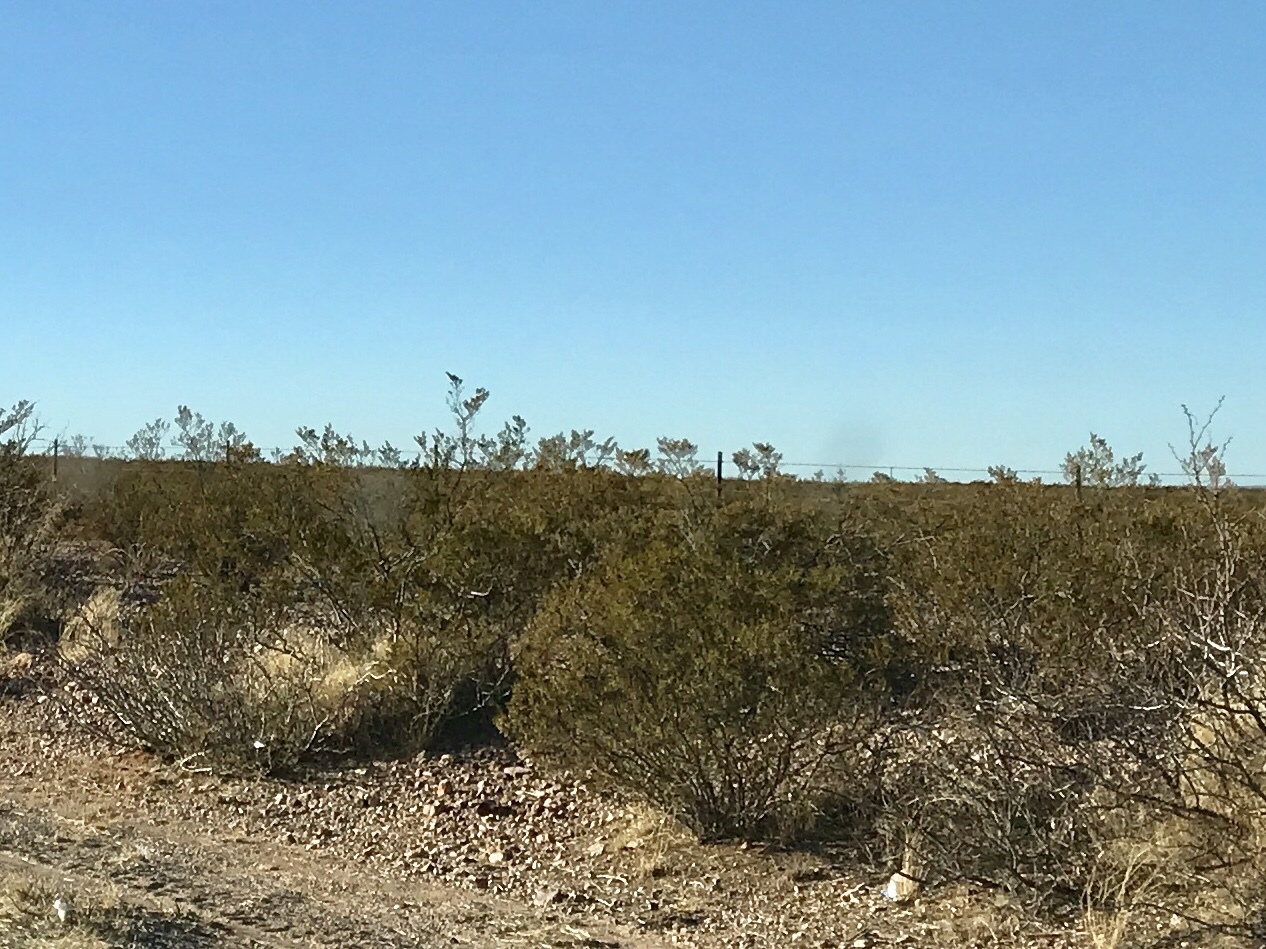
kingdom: Plantae
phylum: Tracheophyta
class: Magnoliopsida
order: Zygophyllales
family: Zygophyllaceae
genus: Larrea
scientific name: Larrea tridentata
